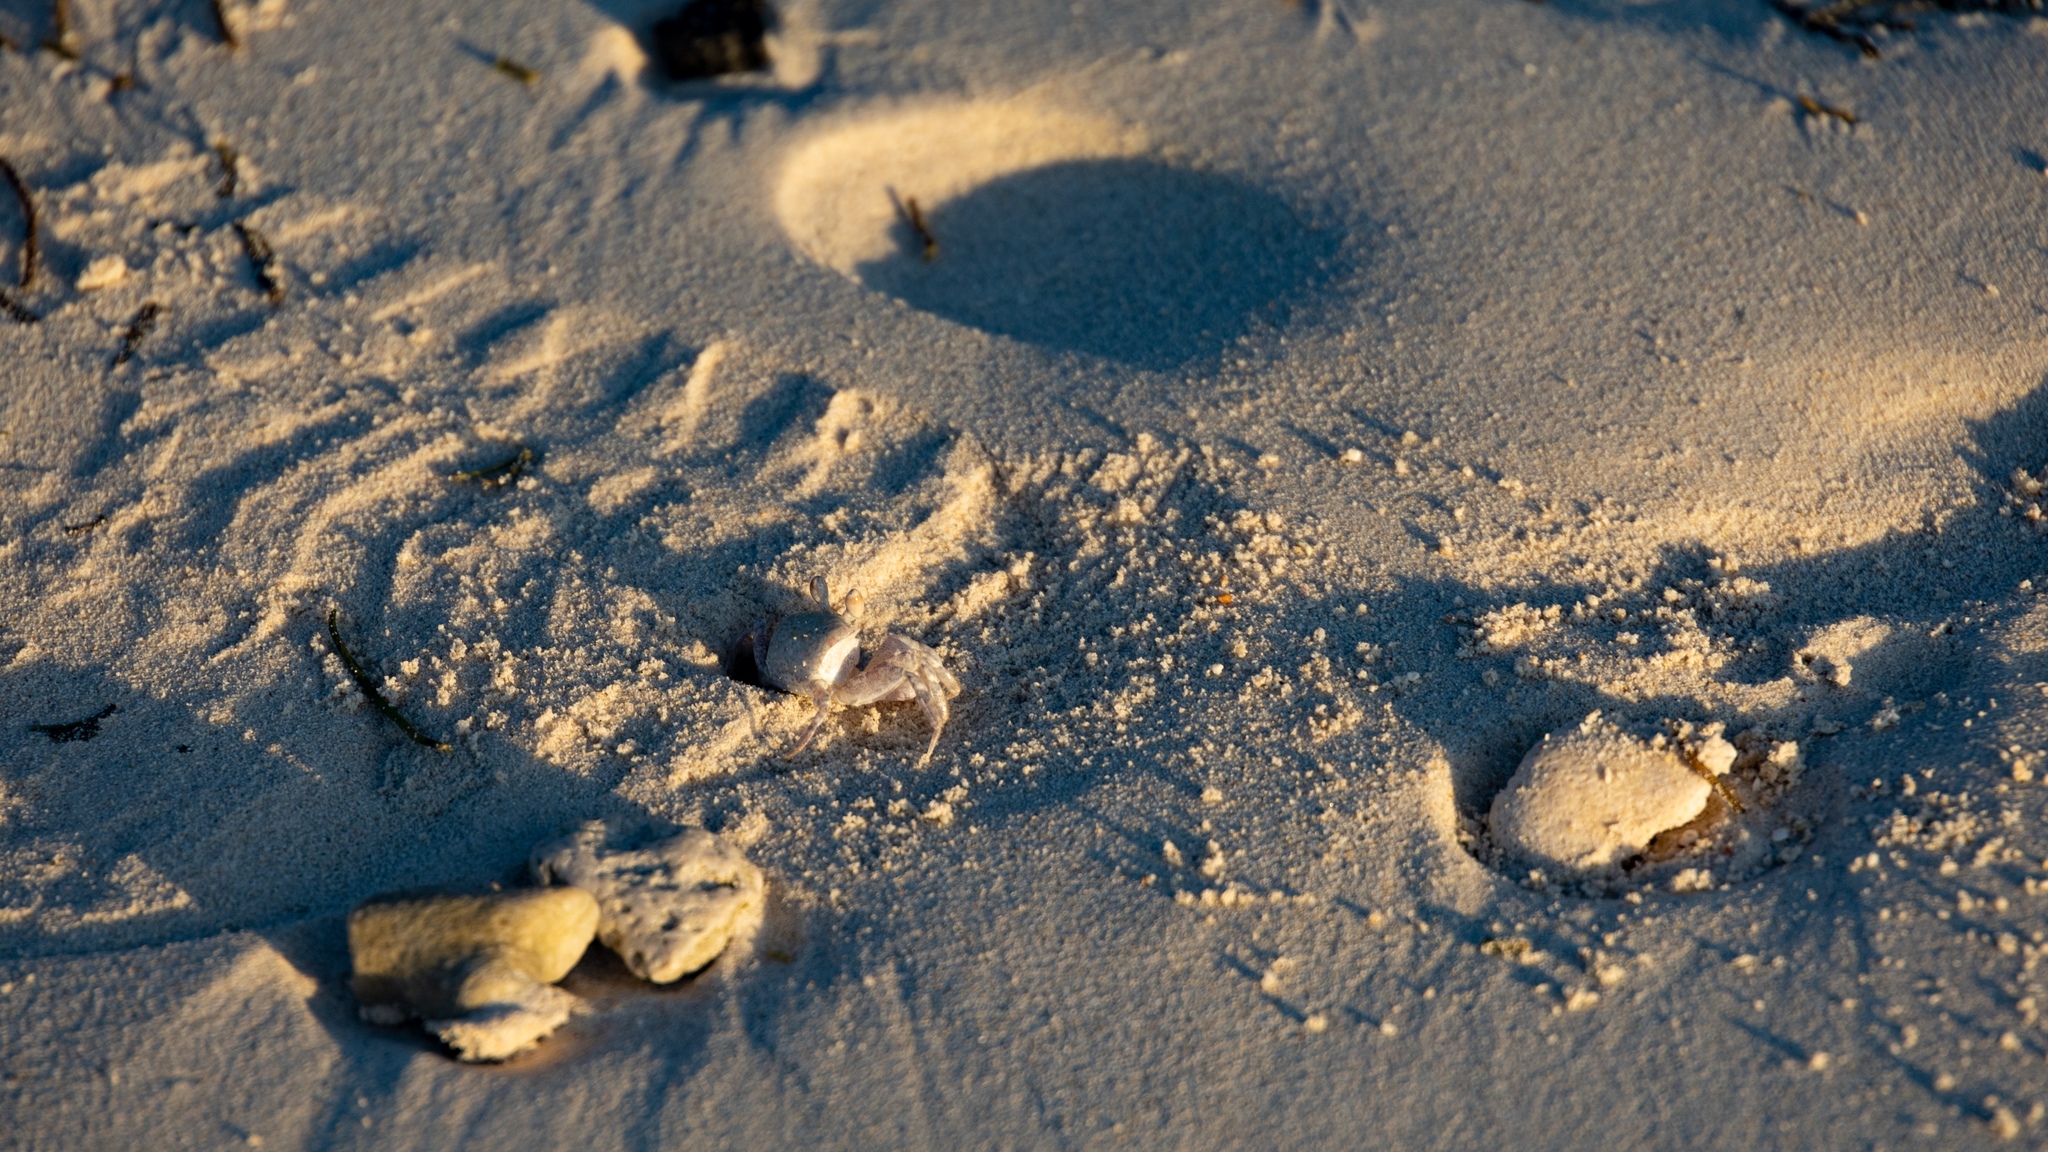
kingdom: Animalia
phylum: Arthropoda
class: Malacostraca
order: Decapoda
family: Ocypodidae
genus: Ocypode
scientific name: Ocypode pallidula
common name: Pallid ghost crab
